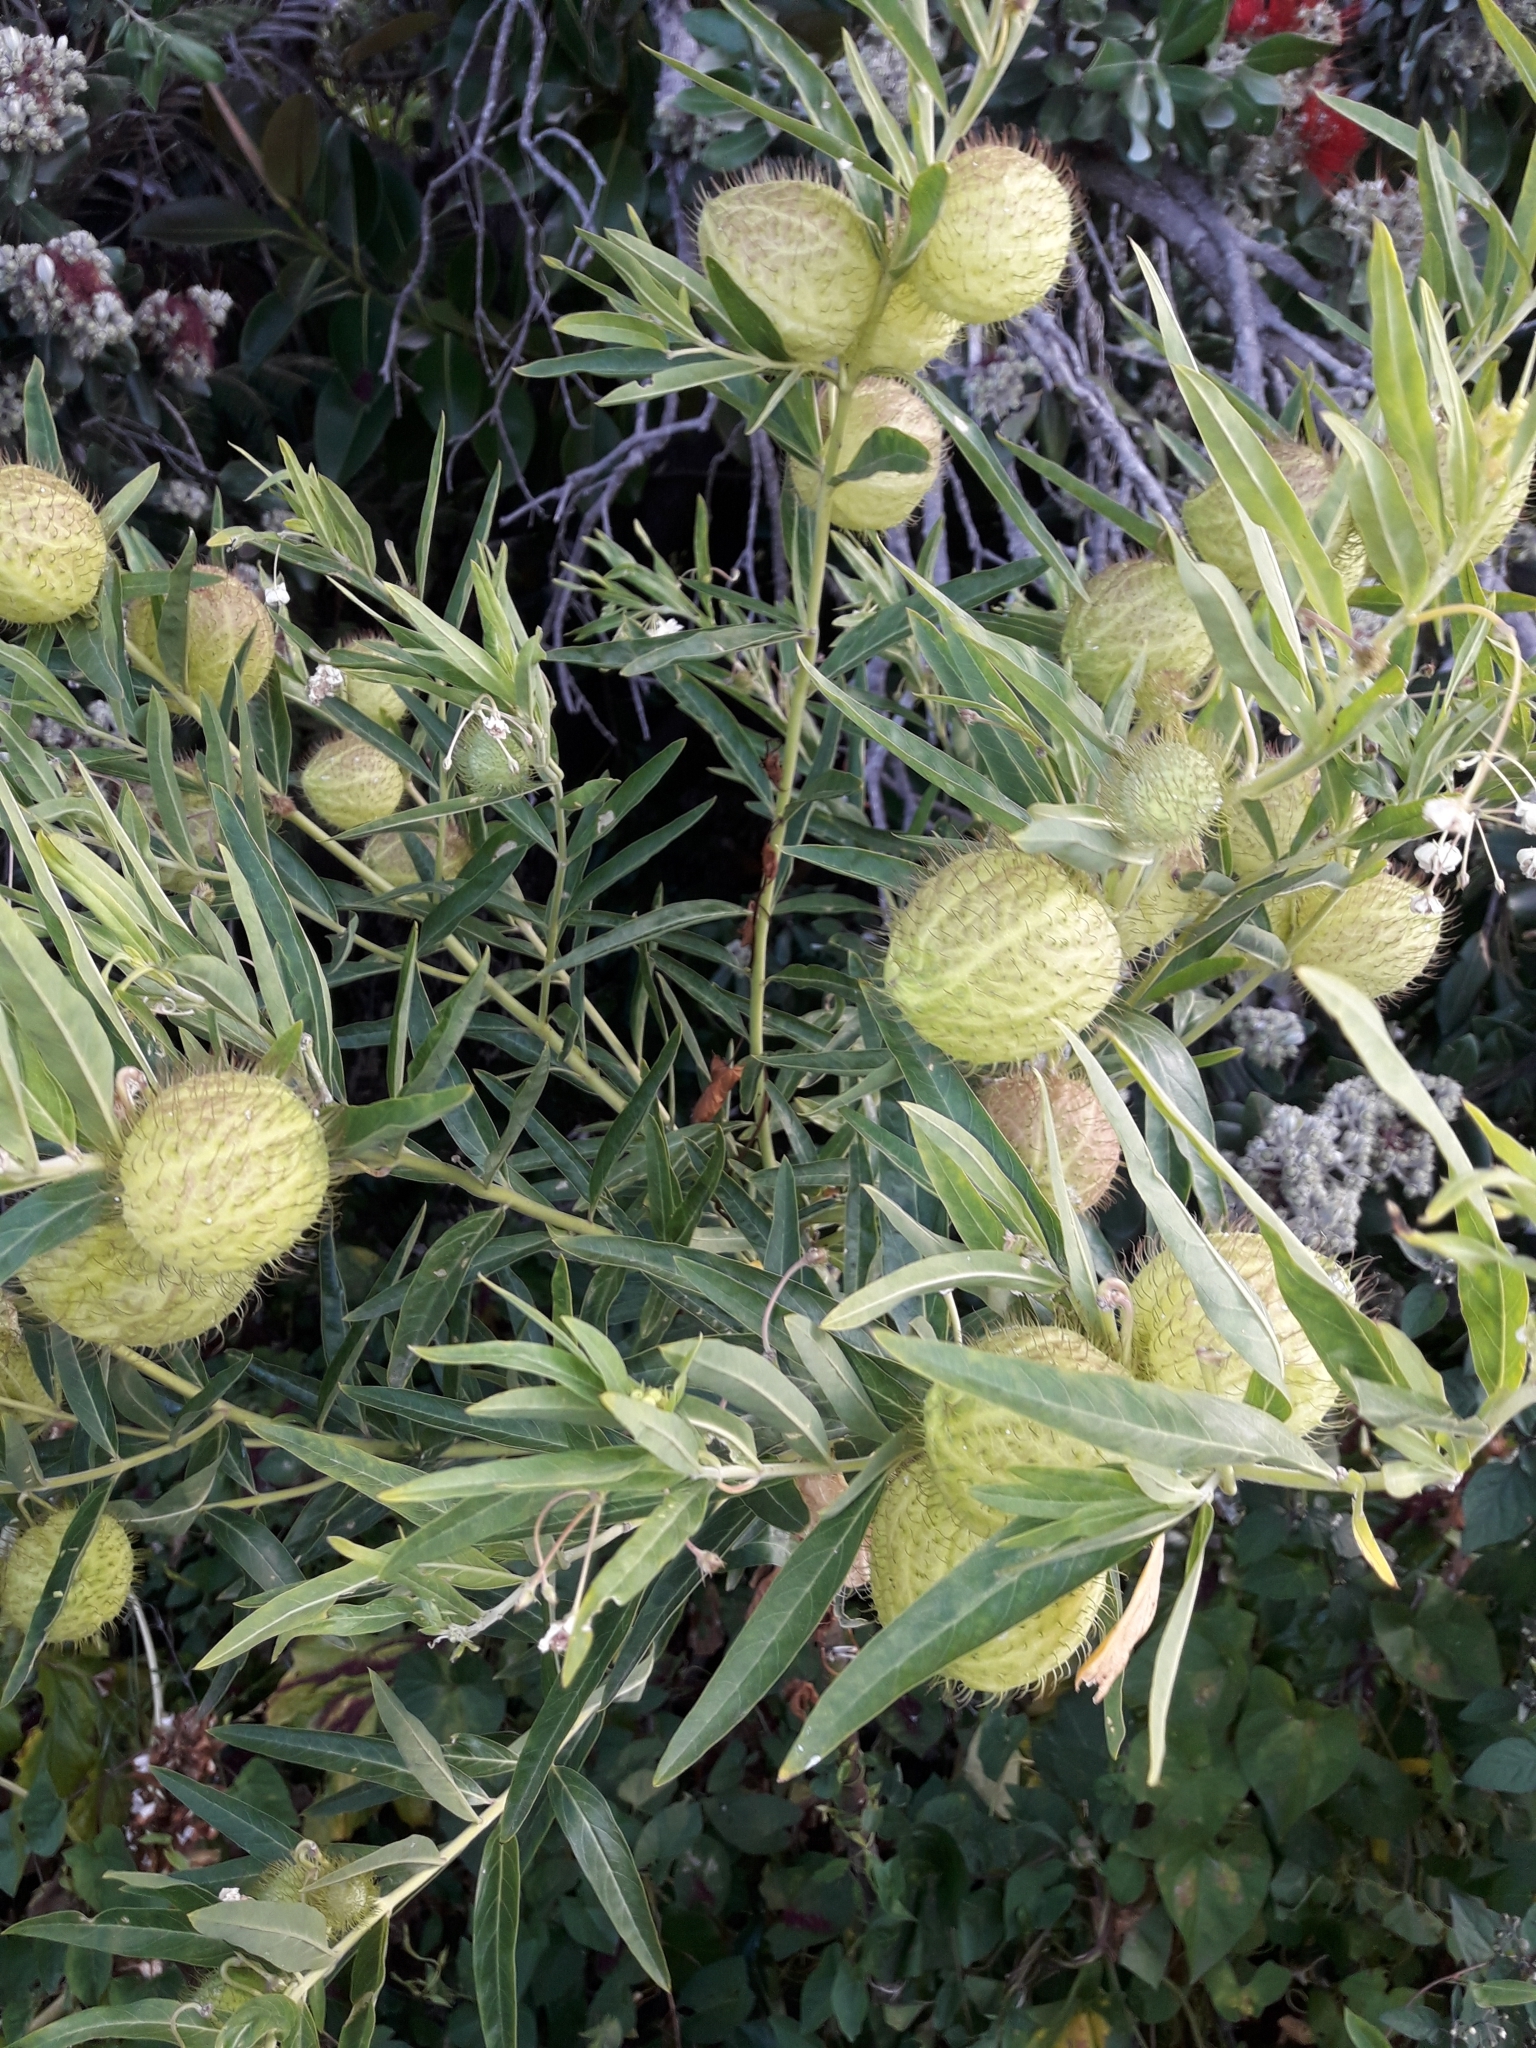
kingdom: Plantae
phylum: Tracheophyta
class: Magnoliopsida
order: Gentianales
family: Apocynaceae
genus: Gomphocarpus
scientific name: Gomphocarpus physocarpus
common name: Balloon cotton bush
